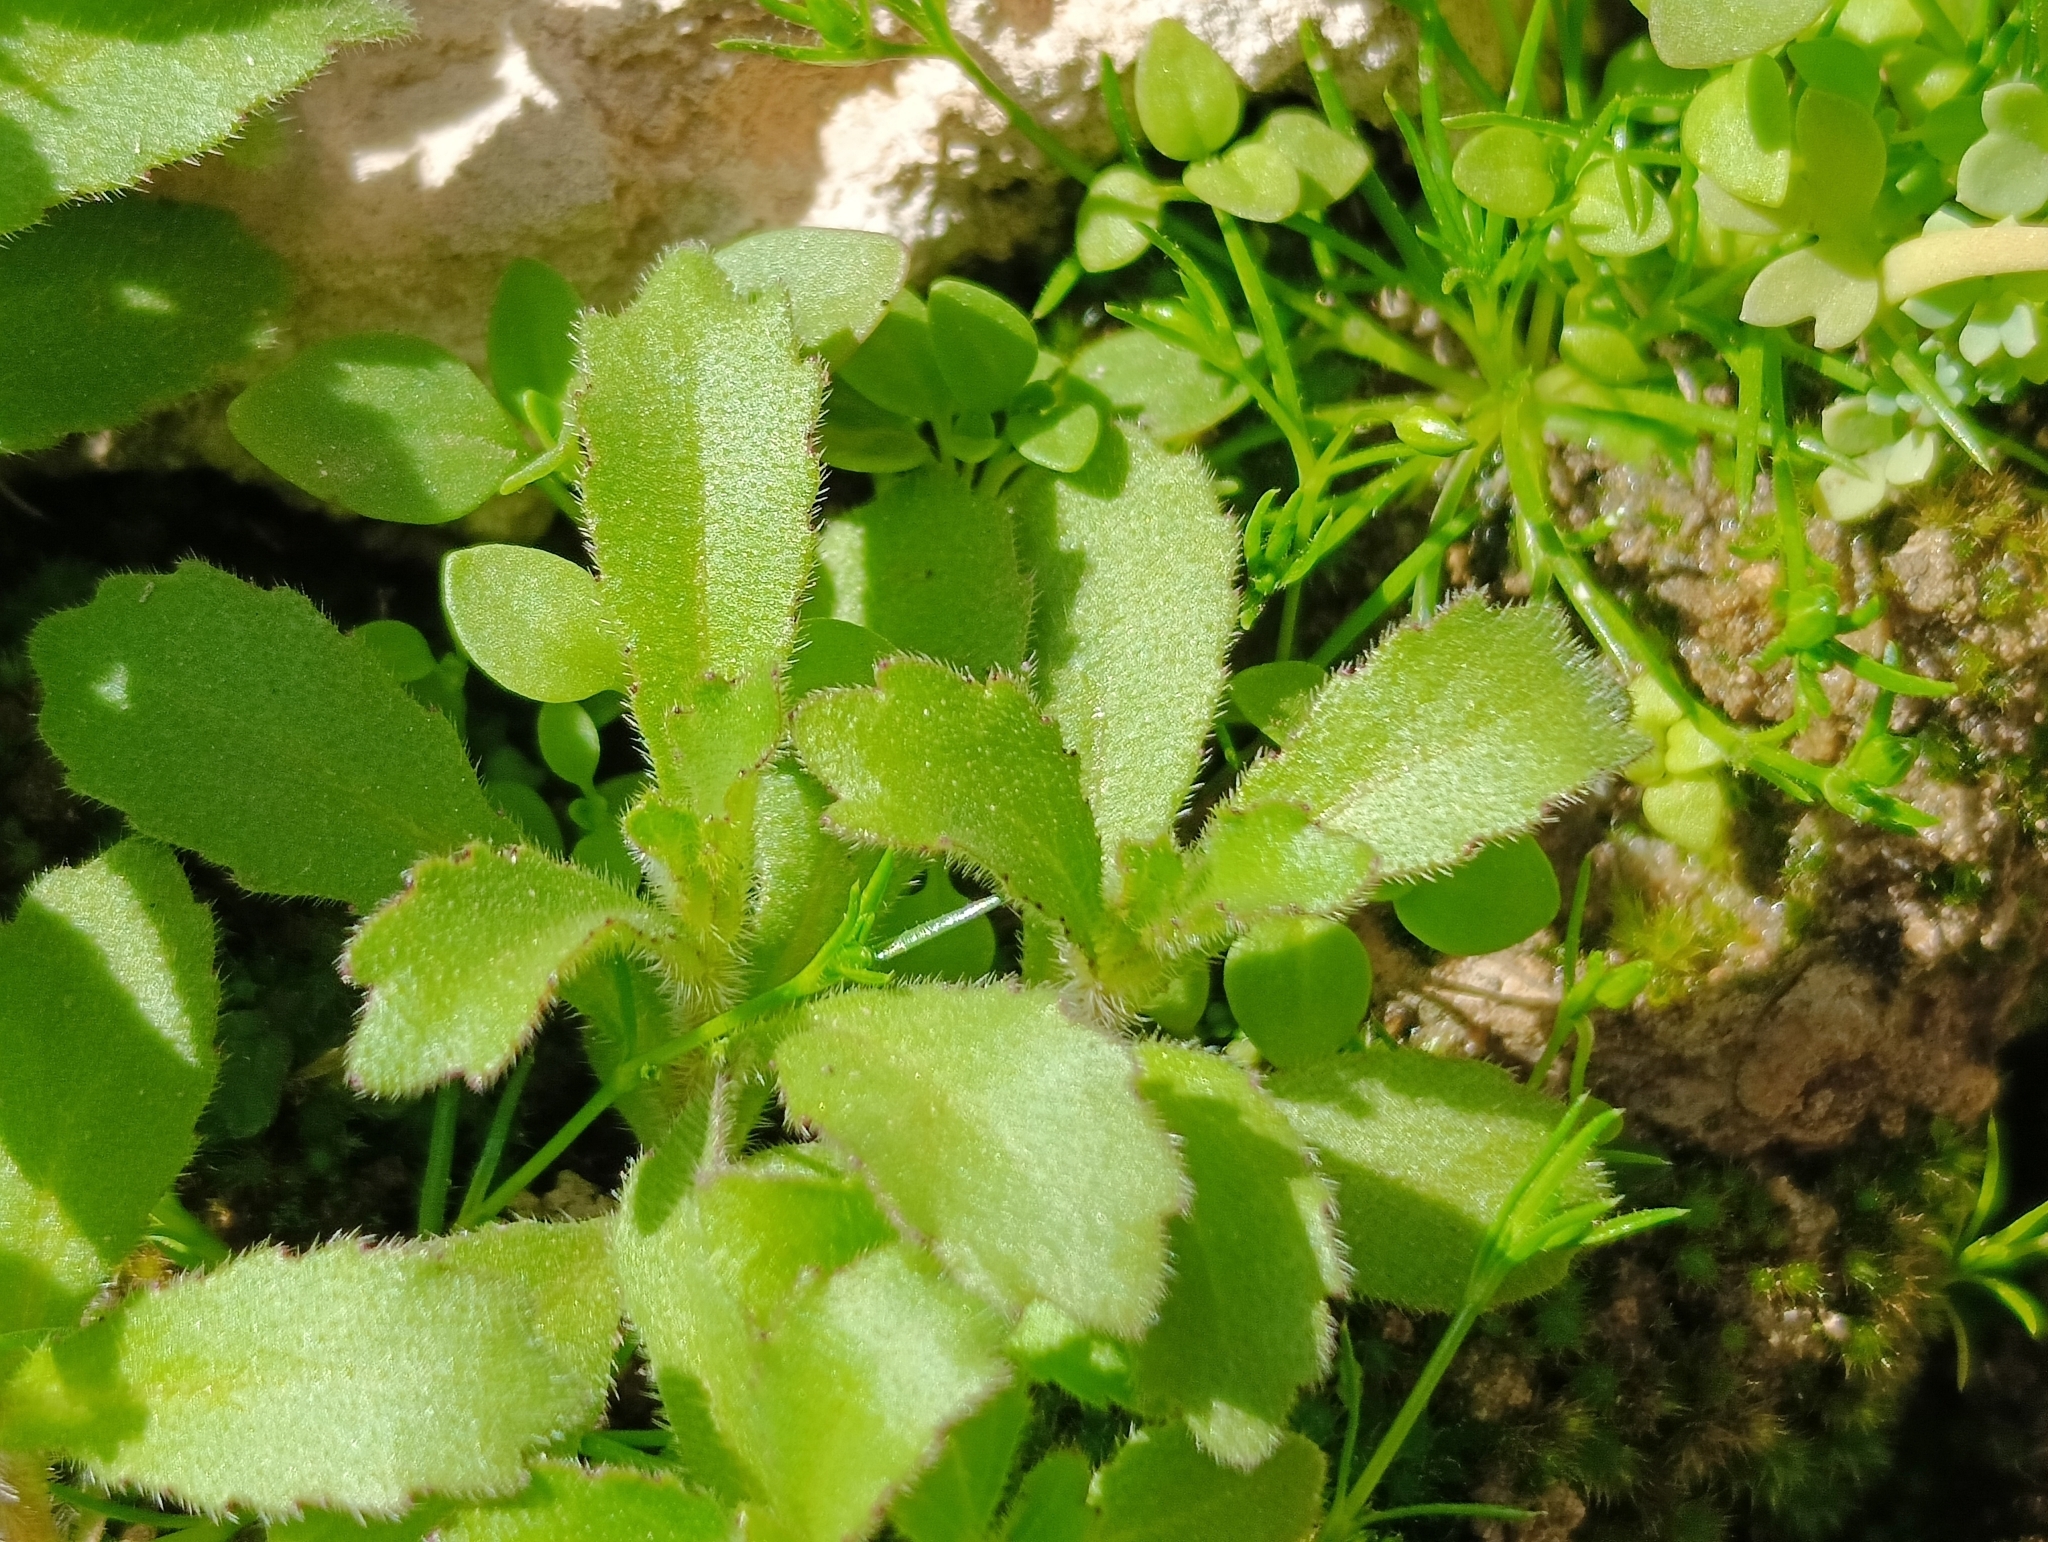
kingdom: Plantae
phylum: Tracheophyta
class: Magnoliopsida
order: Asterales
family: Campanulaceae
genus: Campanula
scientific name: Campanula erinus
